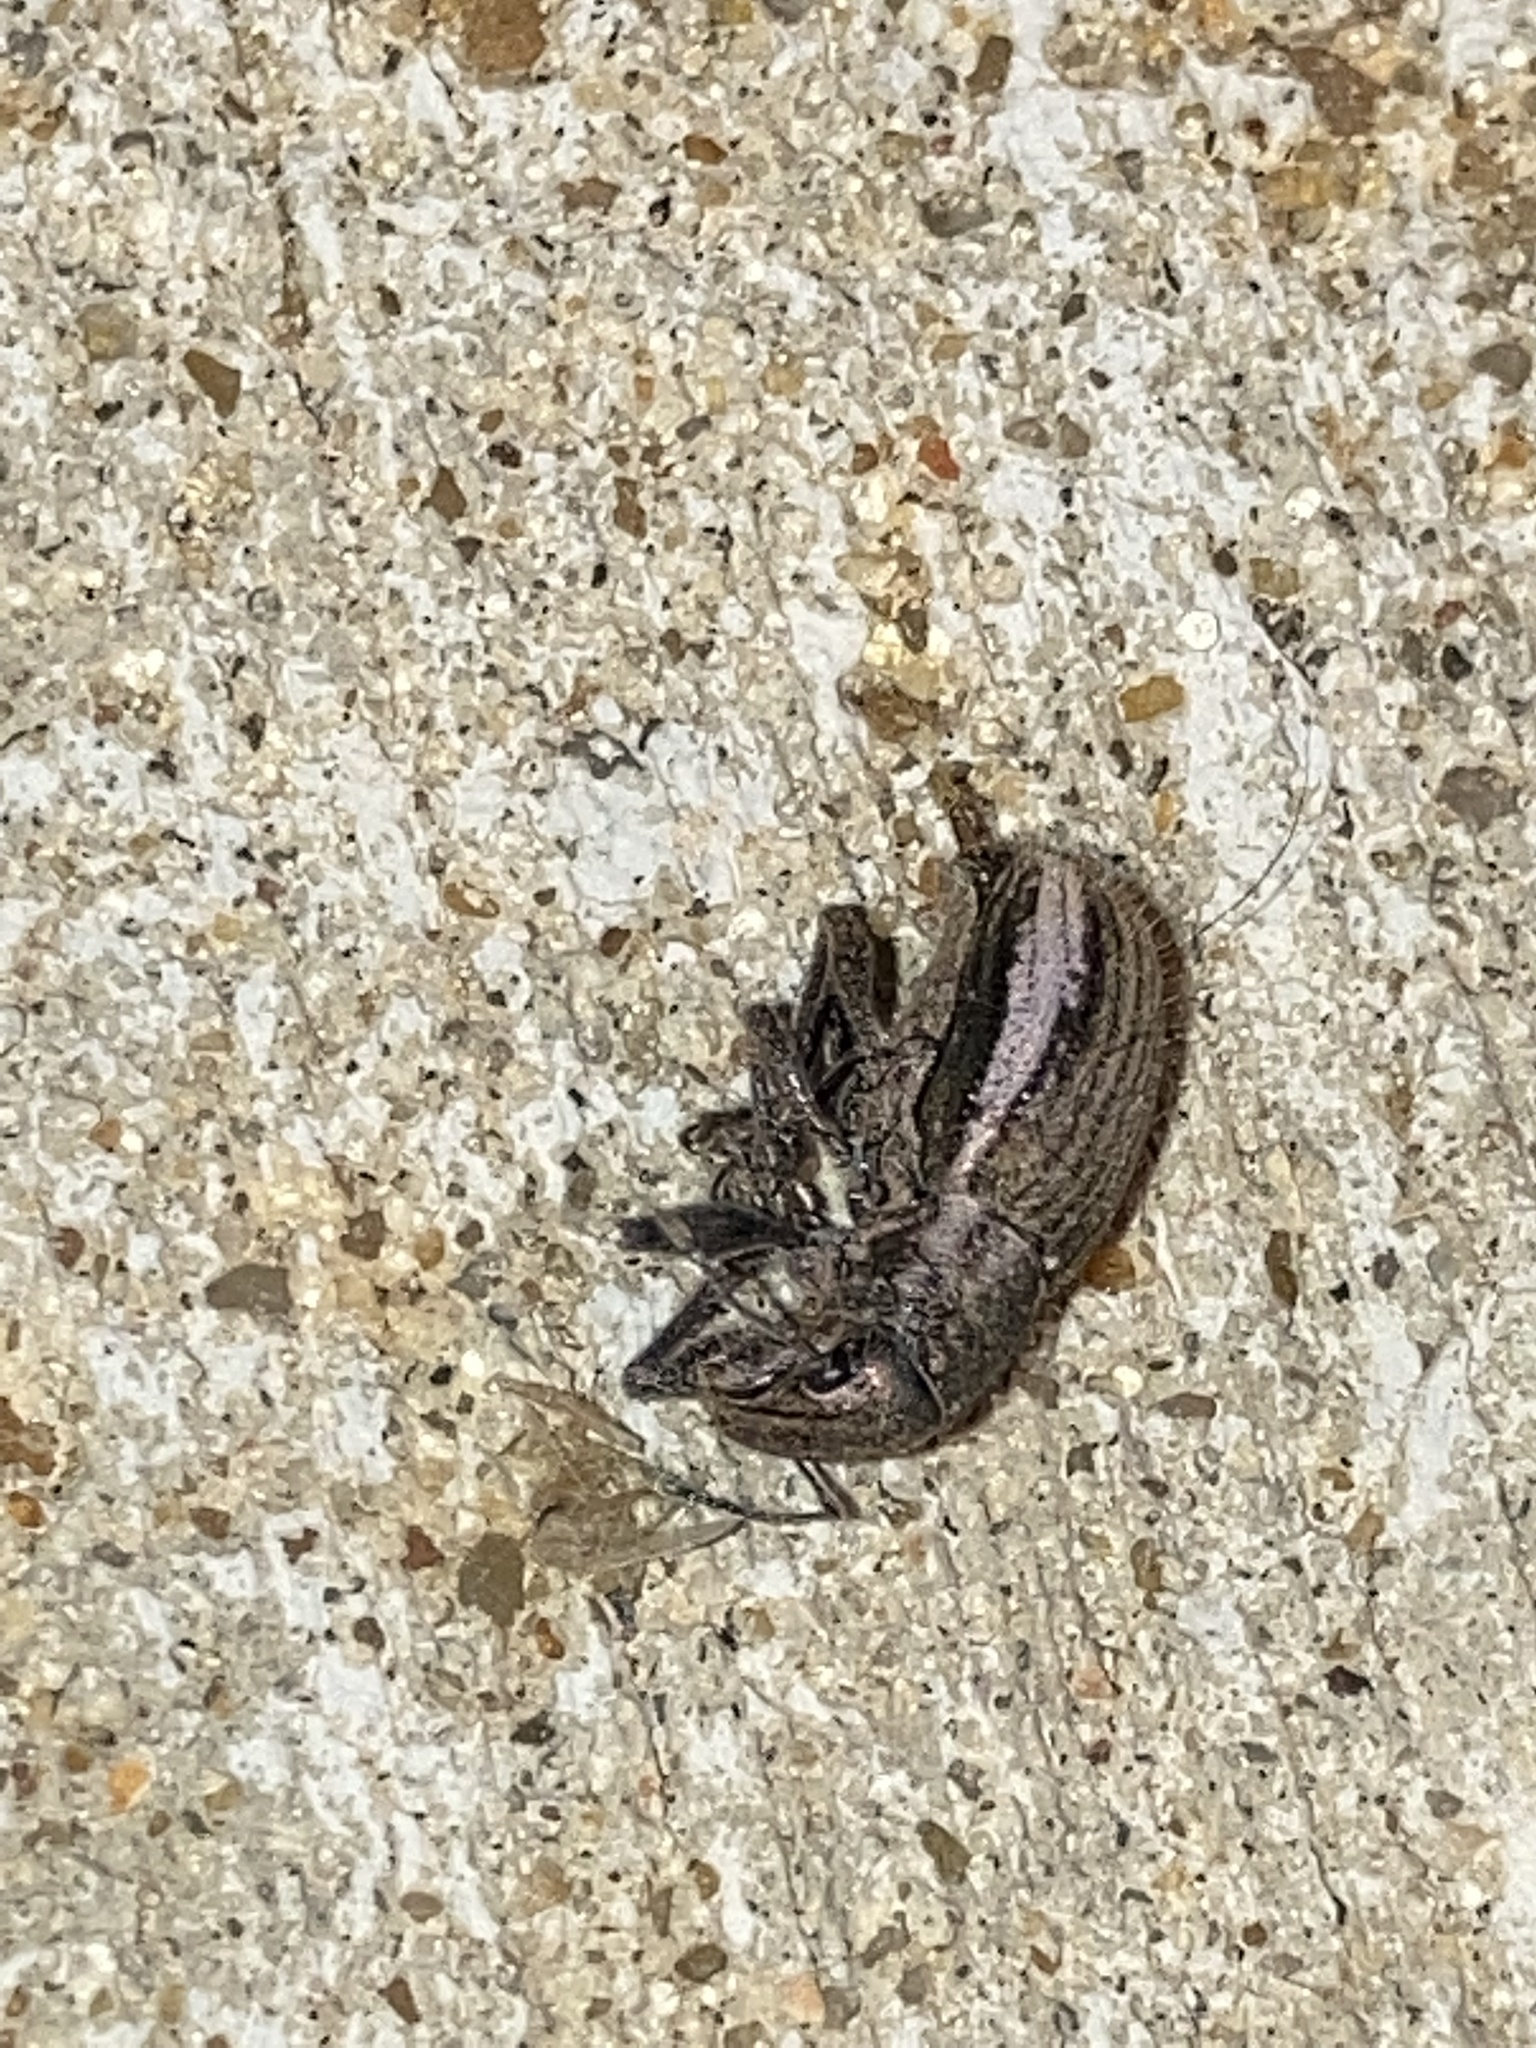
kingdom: Animalia
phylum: Arthropoda
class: Insecta
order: Coleoptera
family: Curculionidae
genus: Naupactus
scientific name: Naupactus peregrinus
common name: Whitefringed beetle
